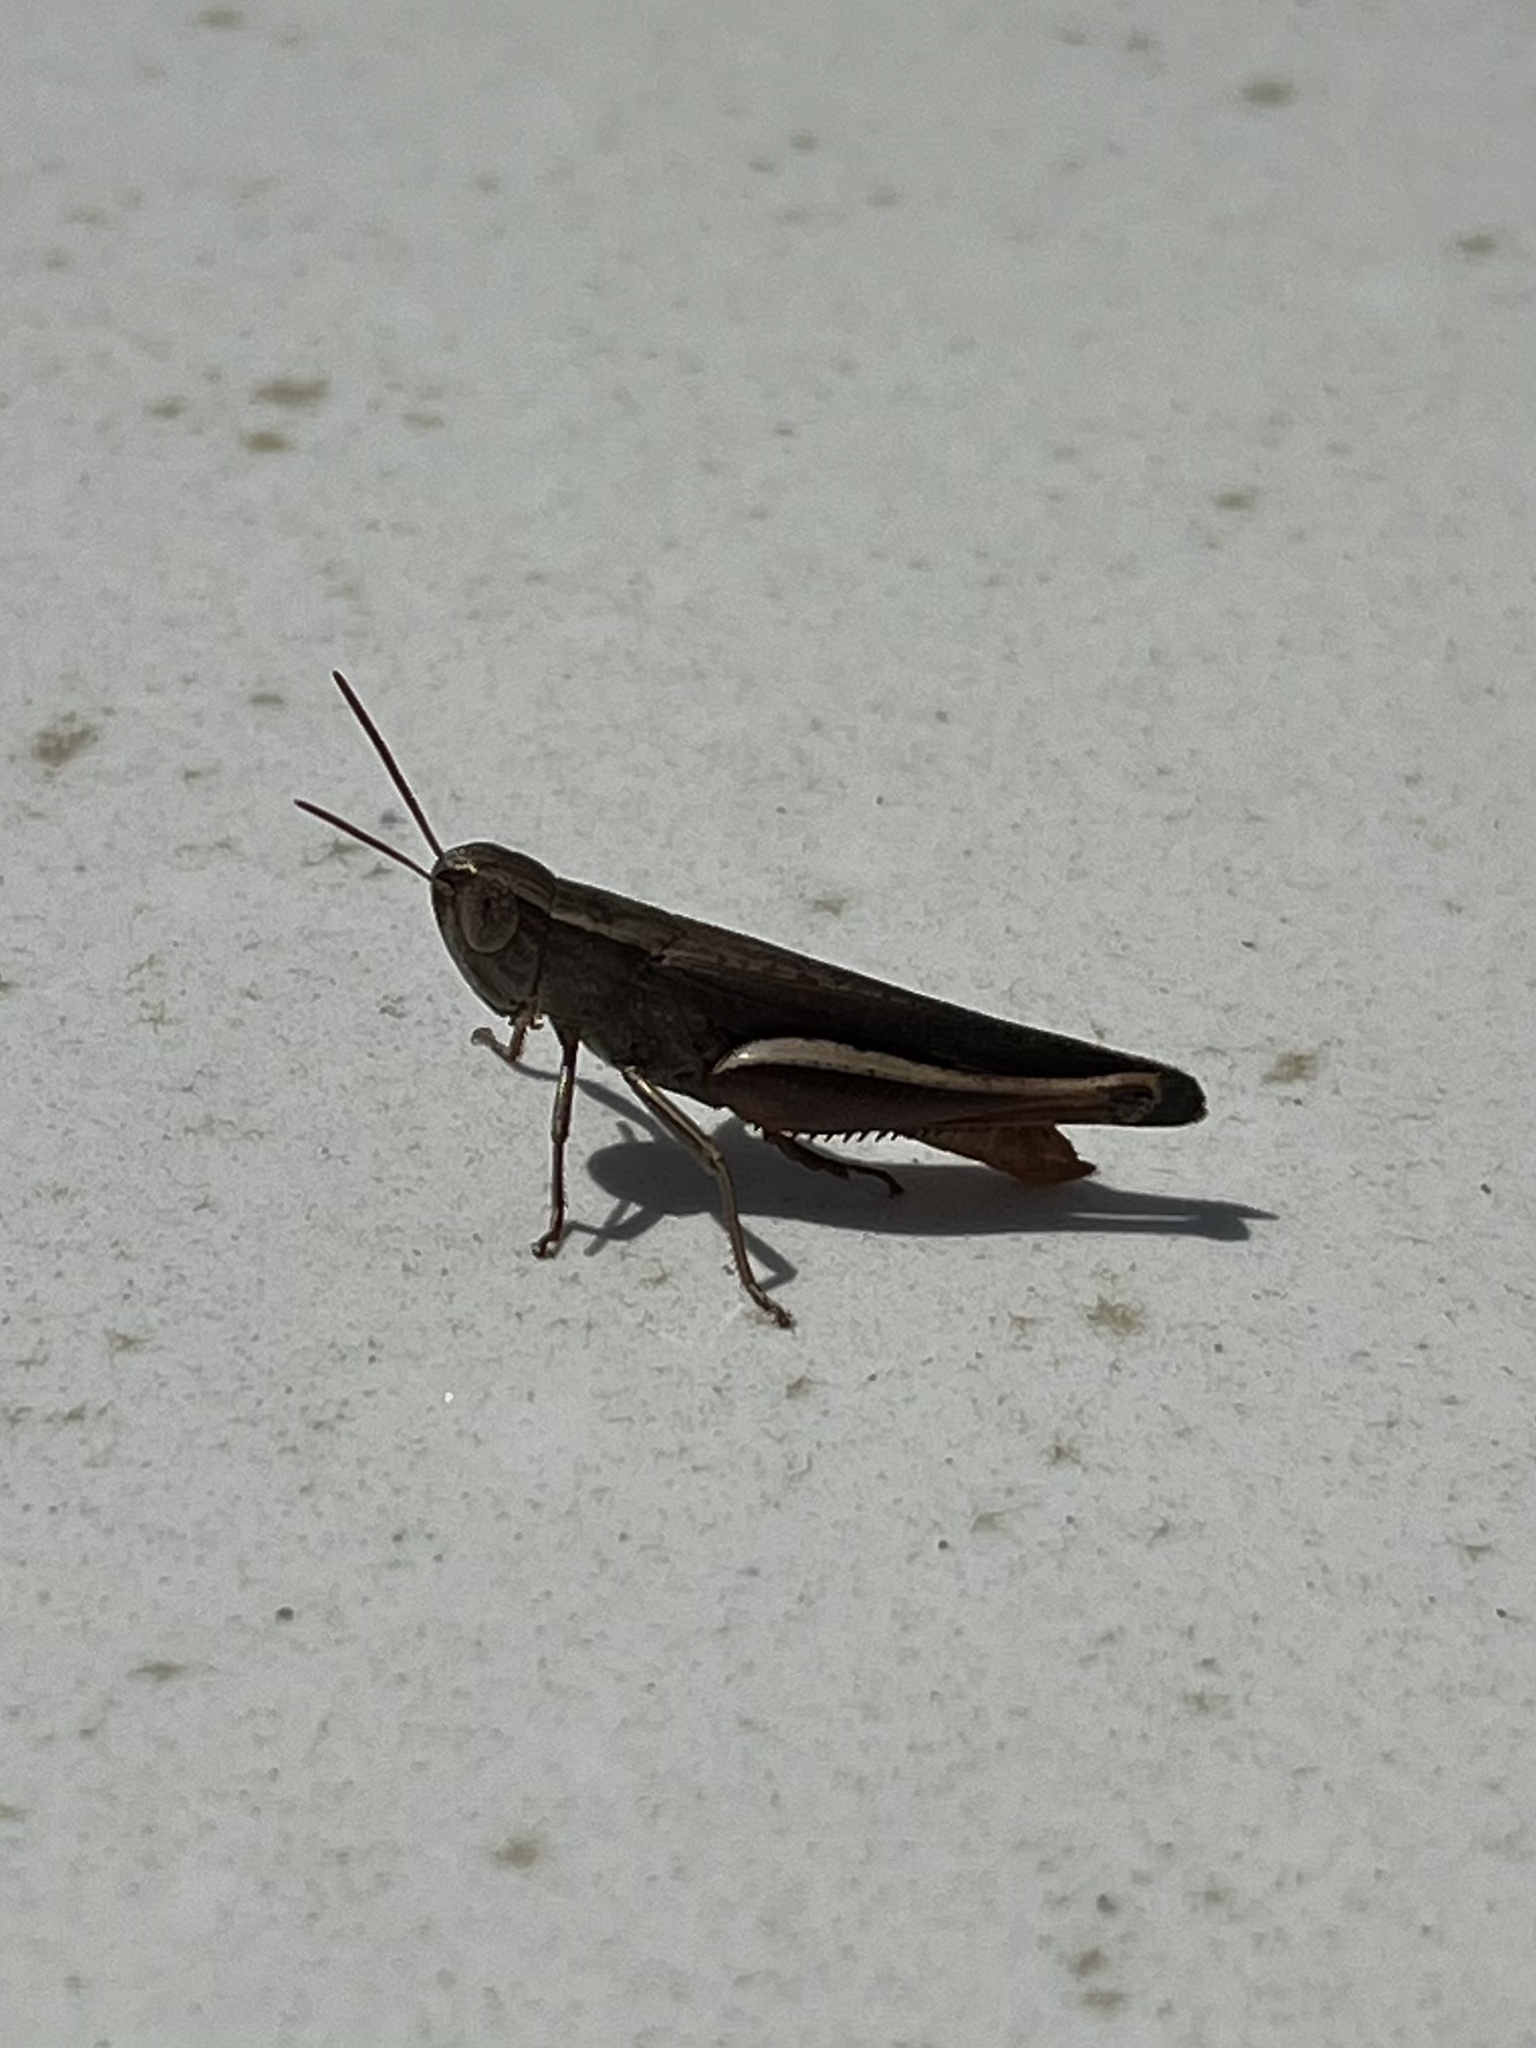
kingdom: Animalia
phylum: Arthropoda
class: Insecta
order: Orthoptera
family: Acrididae
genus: Amblytropidia
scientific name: Amblytropidia mysteca
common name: Brown winter grasshopper
